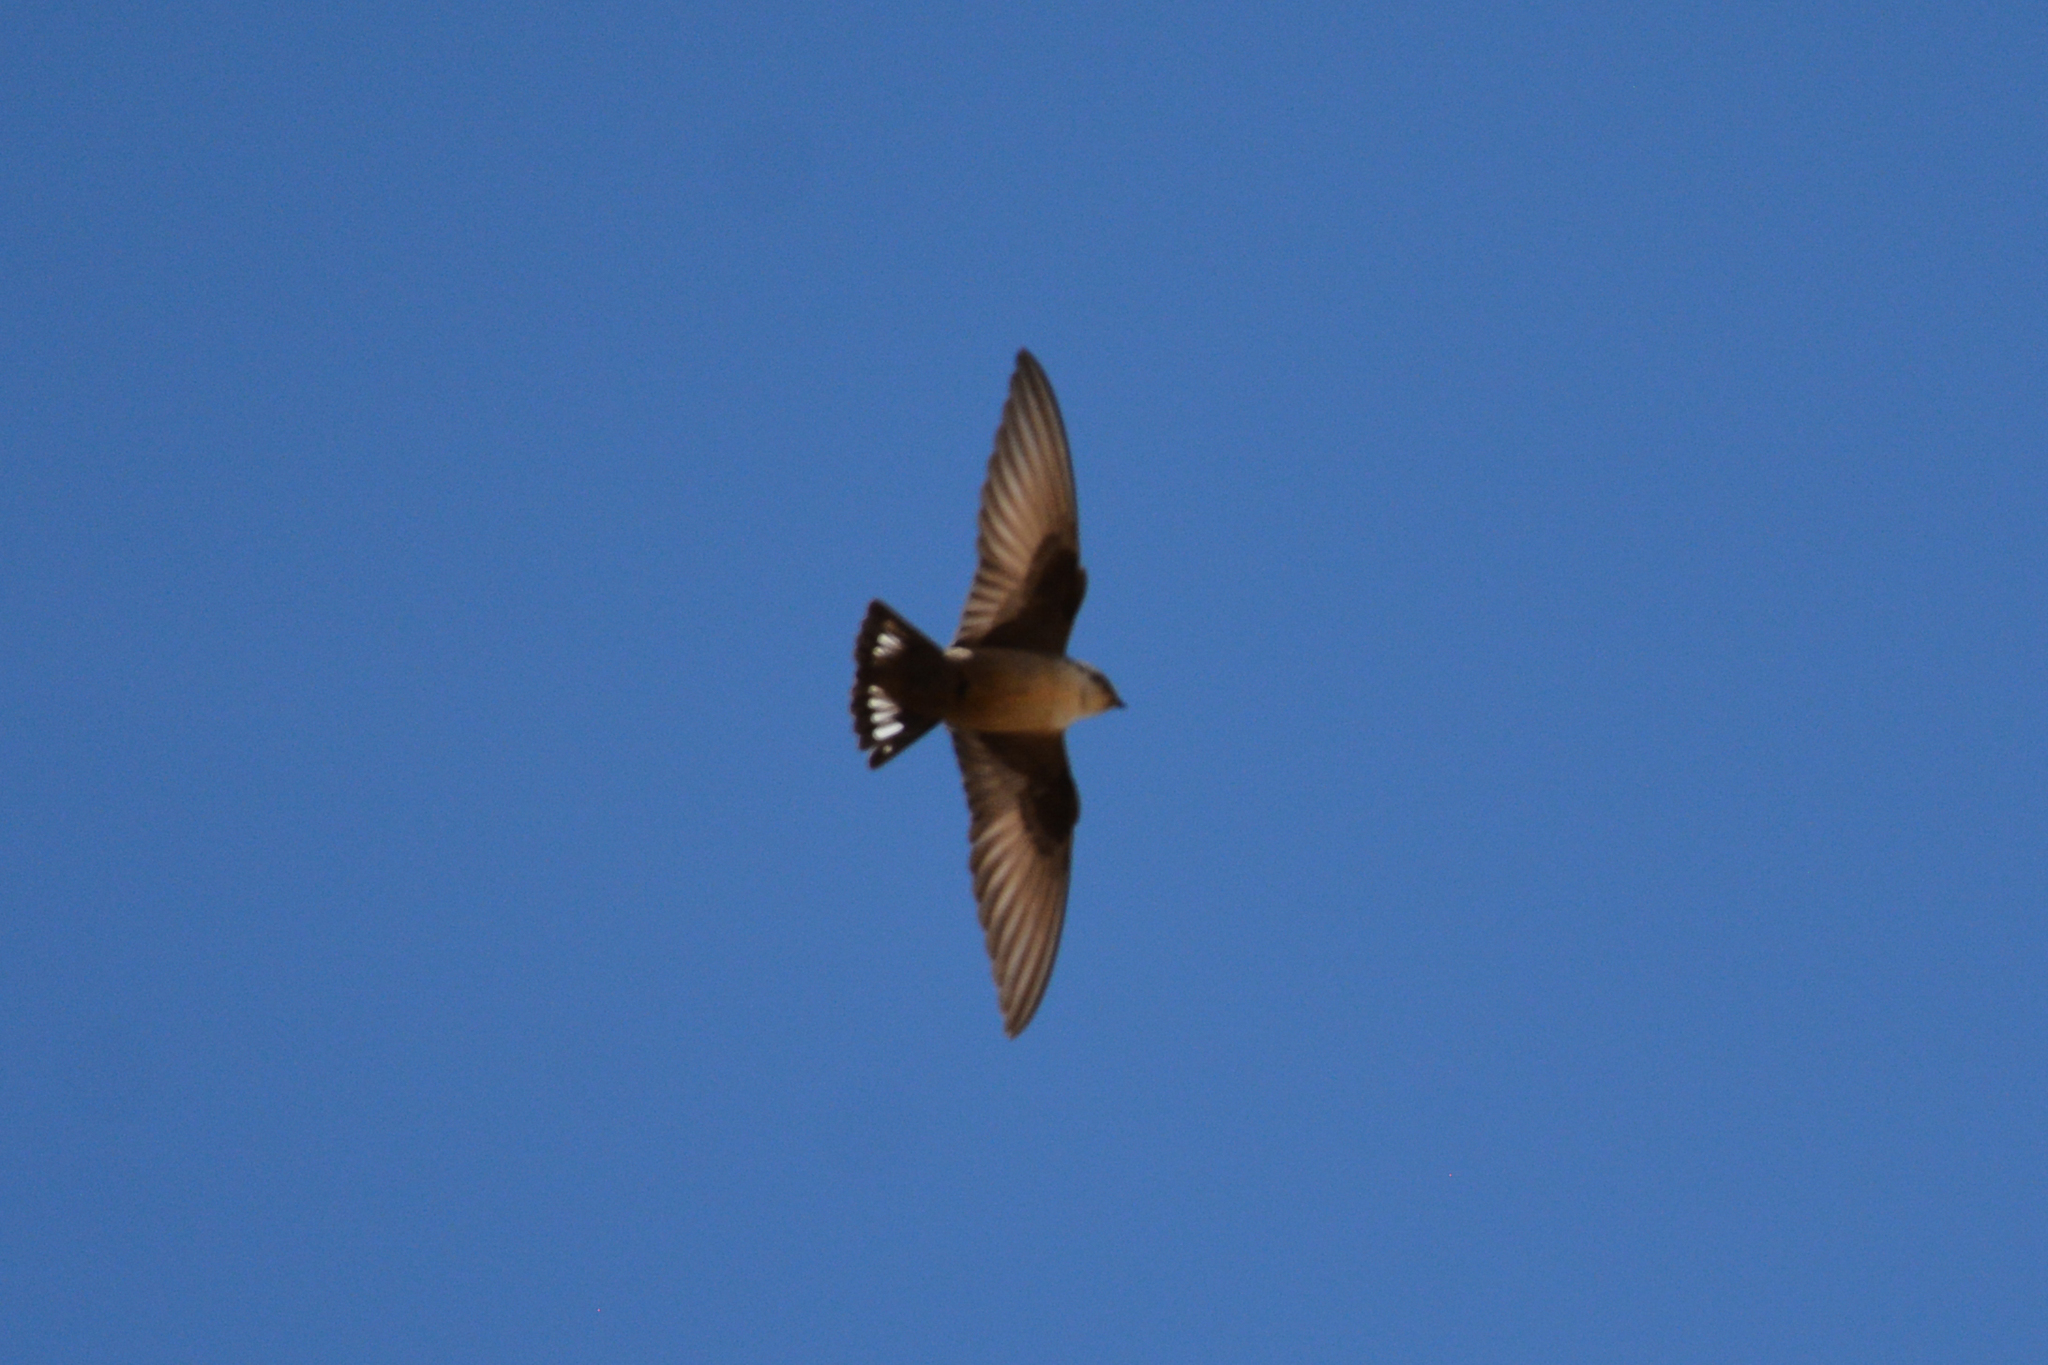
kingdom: Animalia
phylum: Chordata
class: Aves
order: Passeriformes
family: Hirundinidae
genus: Ptyonoprogne
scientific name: Ptyonoprogne rupestris
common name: Eurasian crag martin
